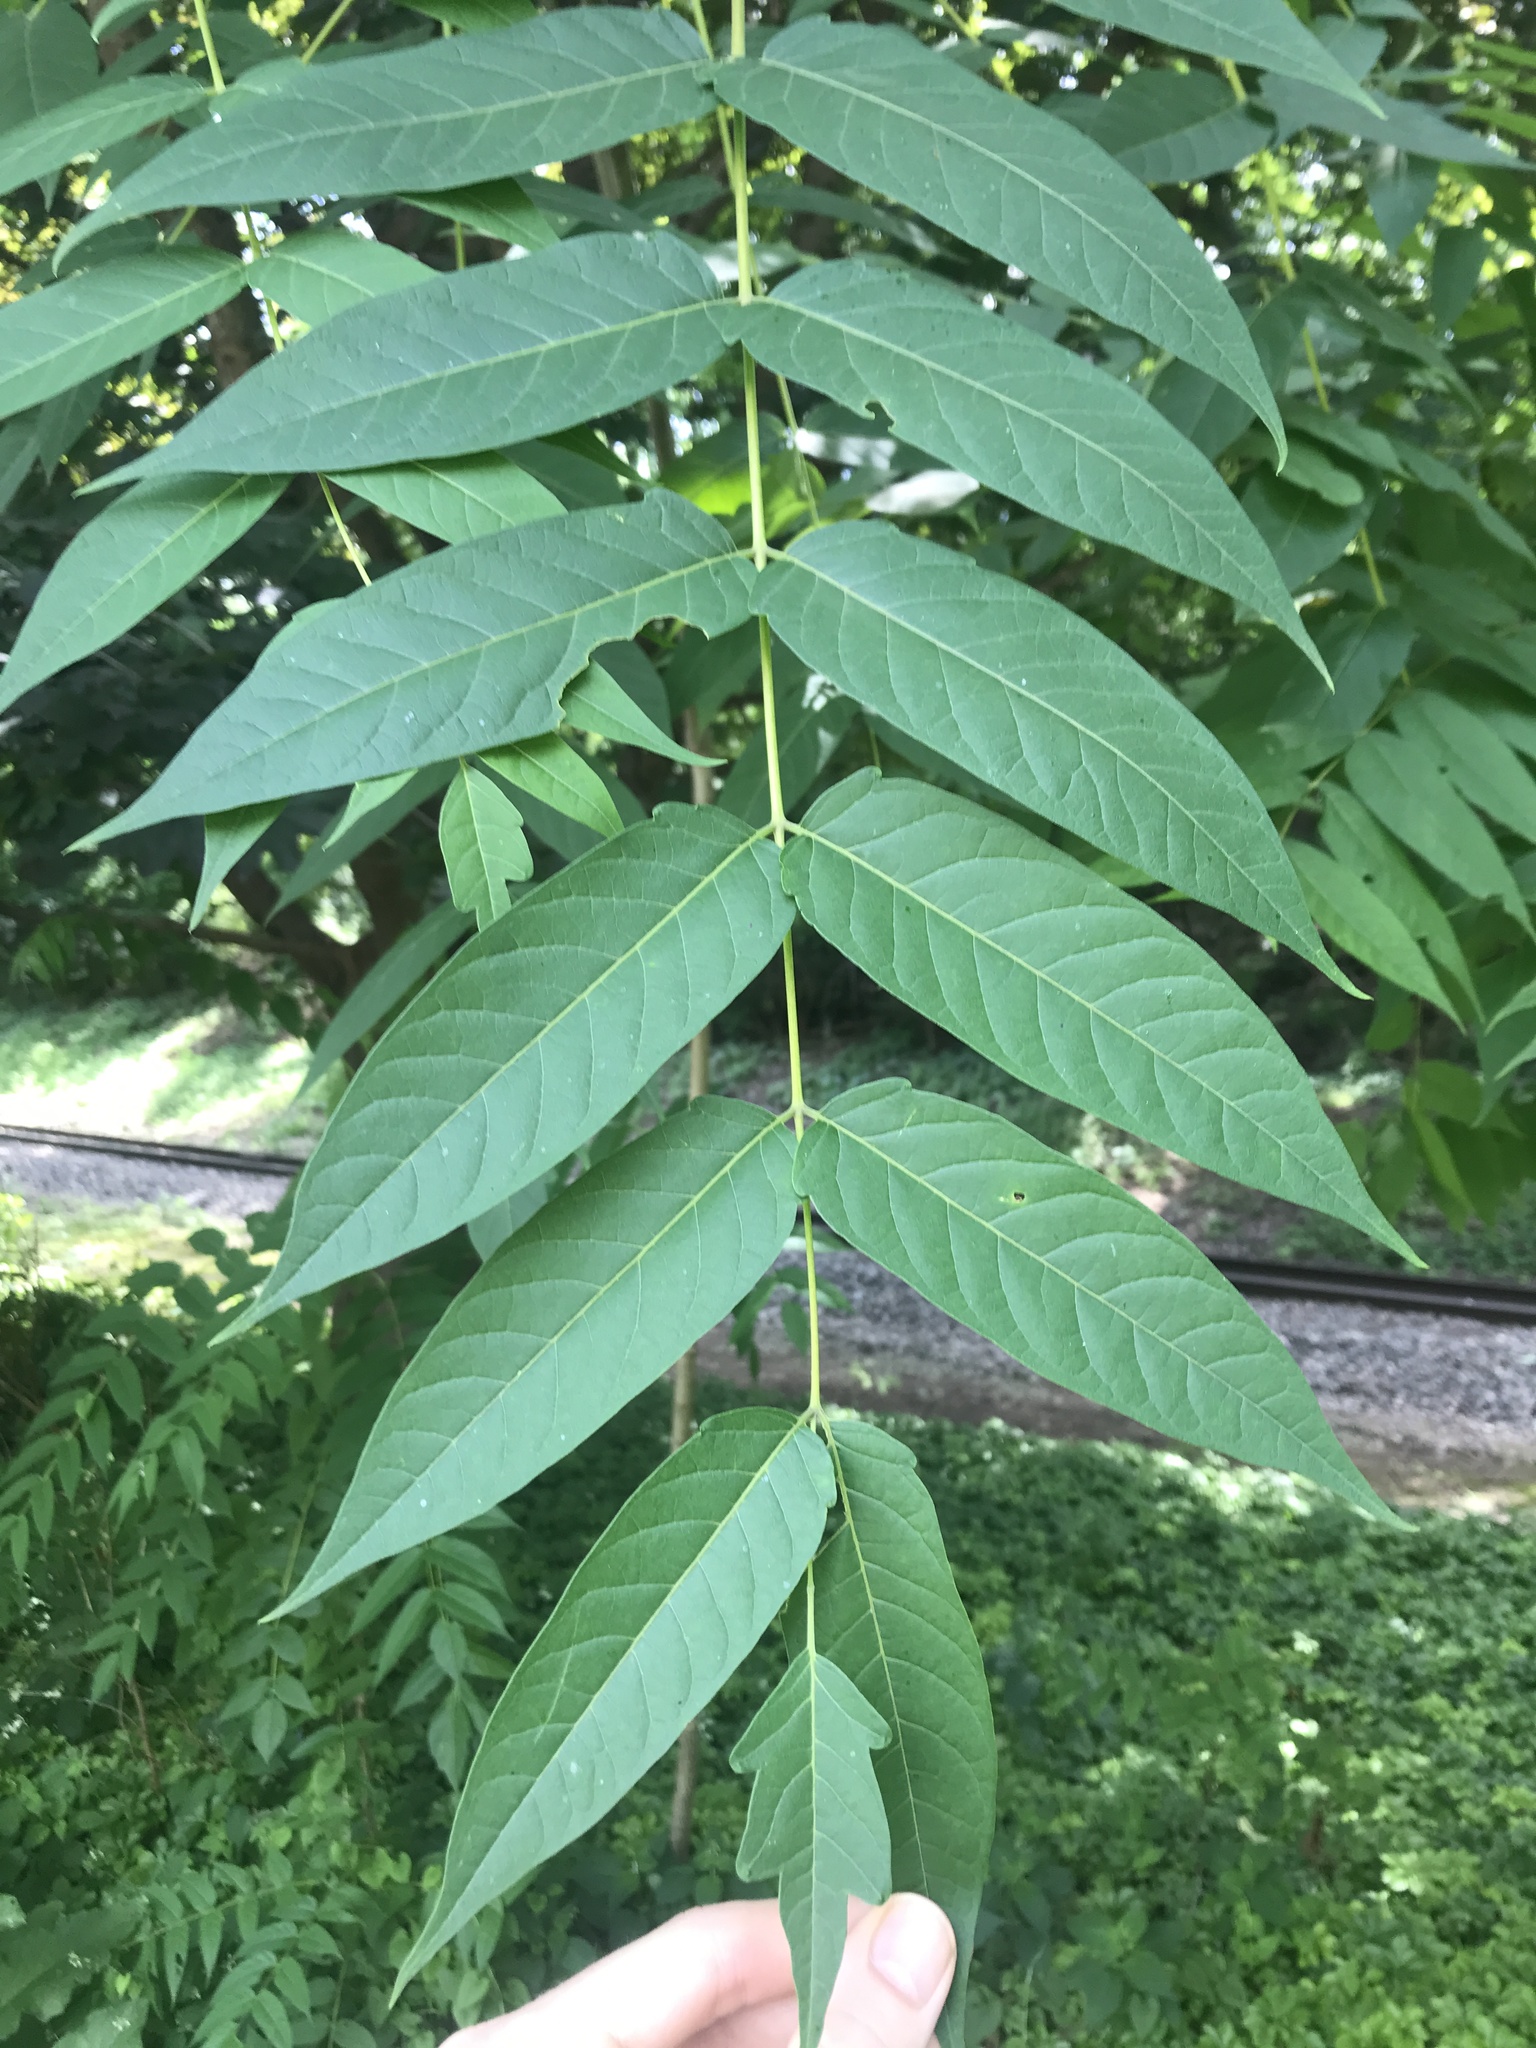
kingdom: Plantae
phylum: Tracheophyta
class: Magnoliopsida
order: Sapindales
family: Simaroubaceae
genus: Ailanthus
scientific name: Ailanthus altissima
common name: Tree-of-heaven
